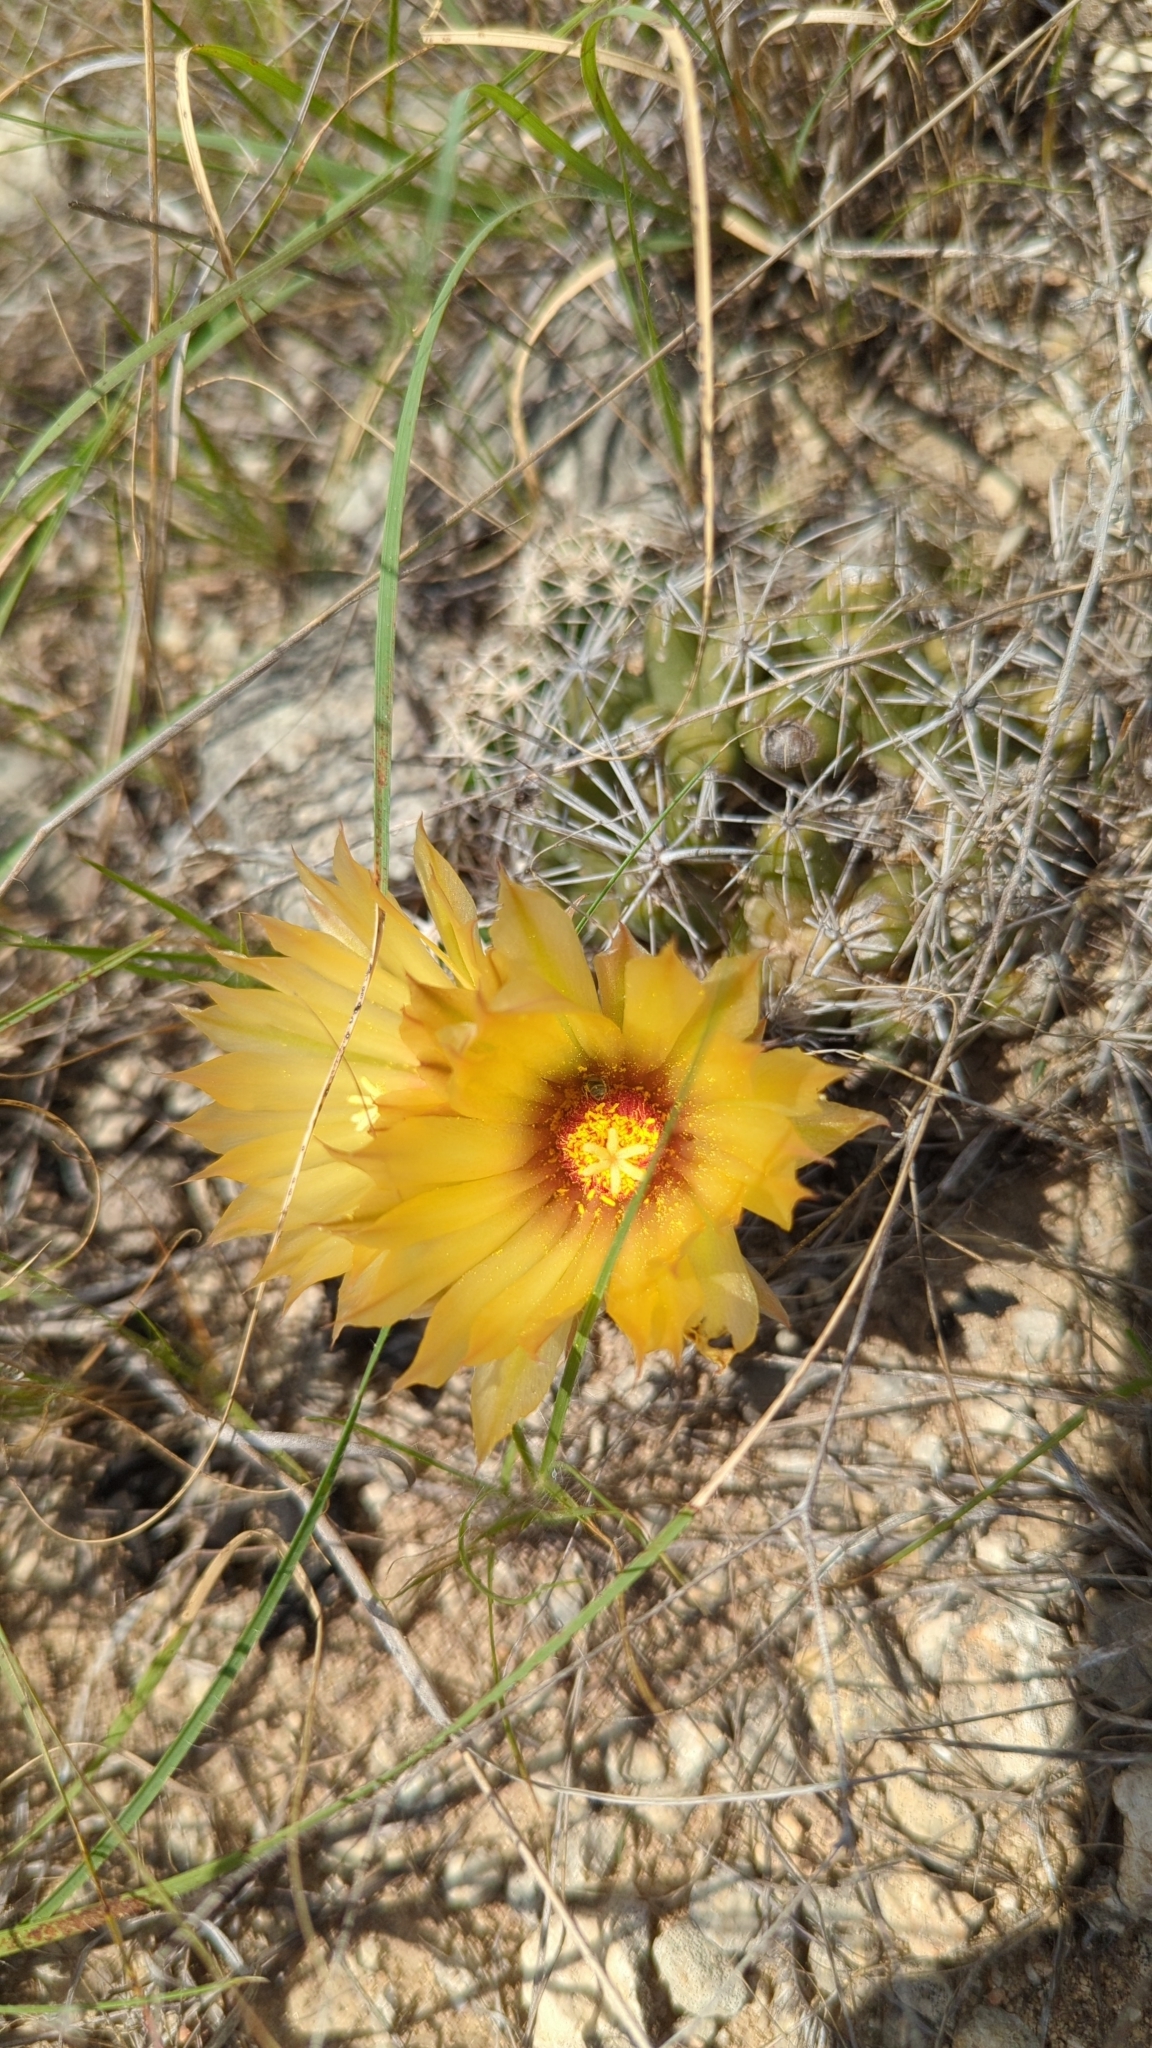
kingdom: Plantae
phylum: Tracheophyta
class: Magnoliopsida
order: Caryophyllales
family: Cactaceae
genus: Coryphantha
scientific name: Coryphantha sulcata
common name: Finger cactus
